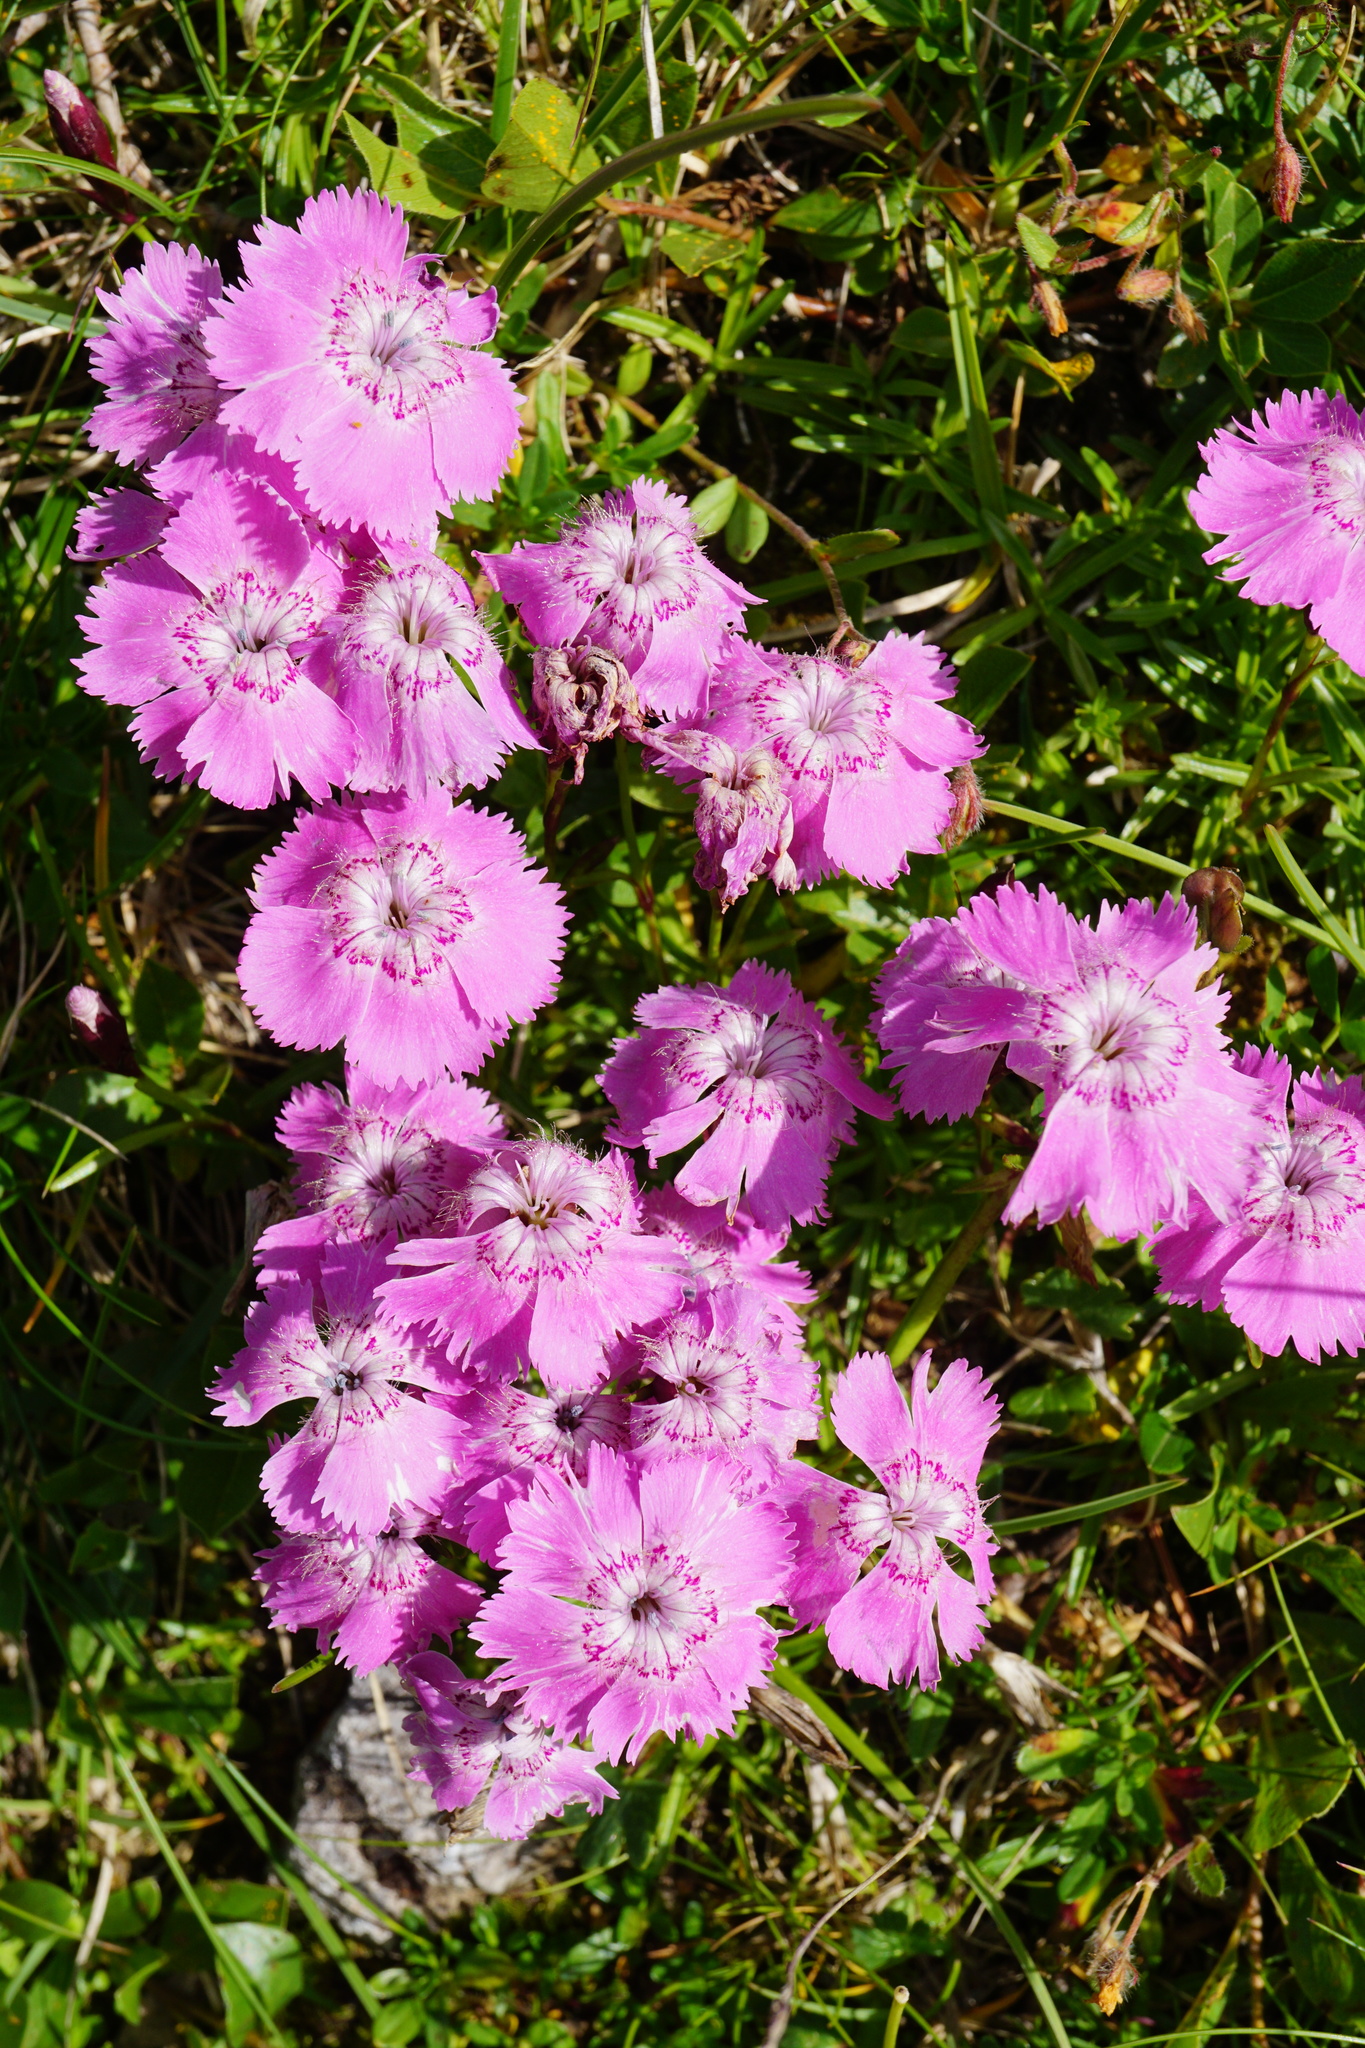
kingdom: Plantae
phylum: Tracheophyta
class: Magnoliopsida
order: Caryophyllales
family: Caryophyllaceae
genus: Dianthus
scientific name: Dianthus alpinus
